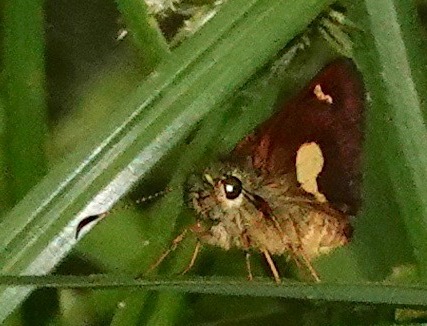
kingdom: Animalia
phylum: Arthropoda
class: Insecta
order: Lepidoptera
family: Hesperiidae
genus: Dalla
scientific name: Dalla dora
